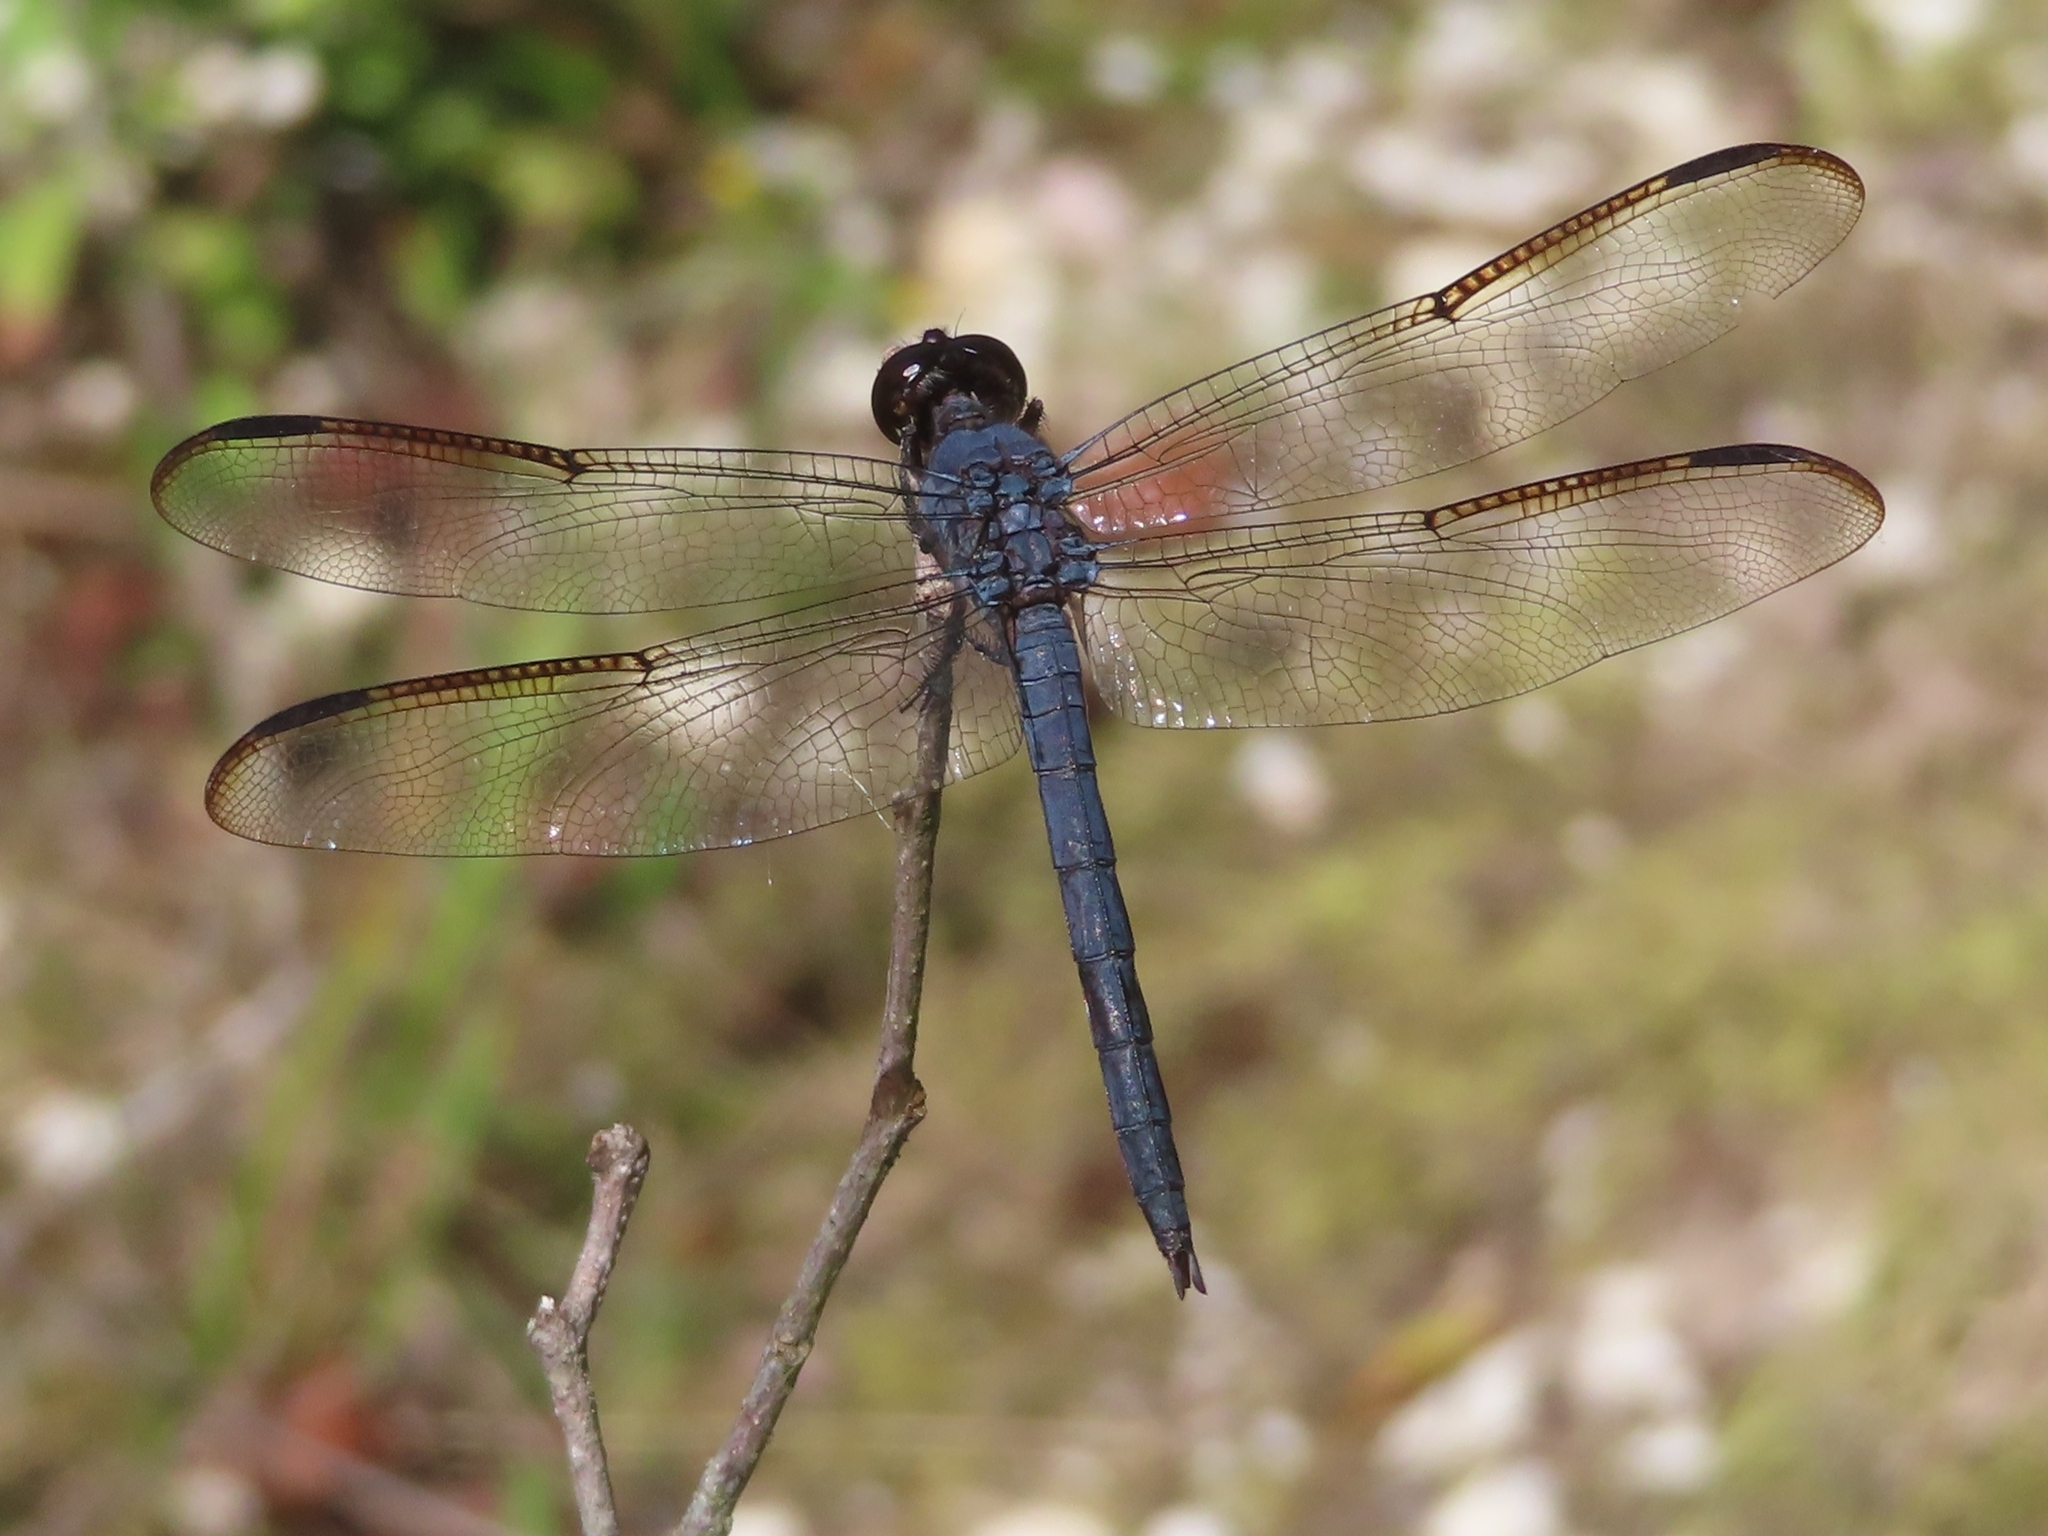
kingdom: Animalia
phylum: Arthropoda
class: Insecta
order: Odonata
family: Libellulidae
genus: Libellula
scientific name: Libellula incesta
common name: Slaty skimmer
